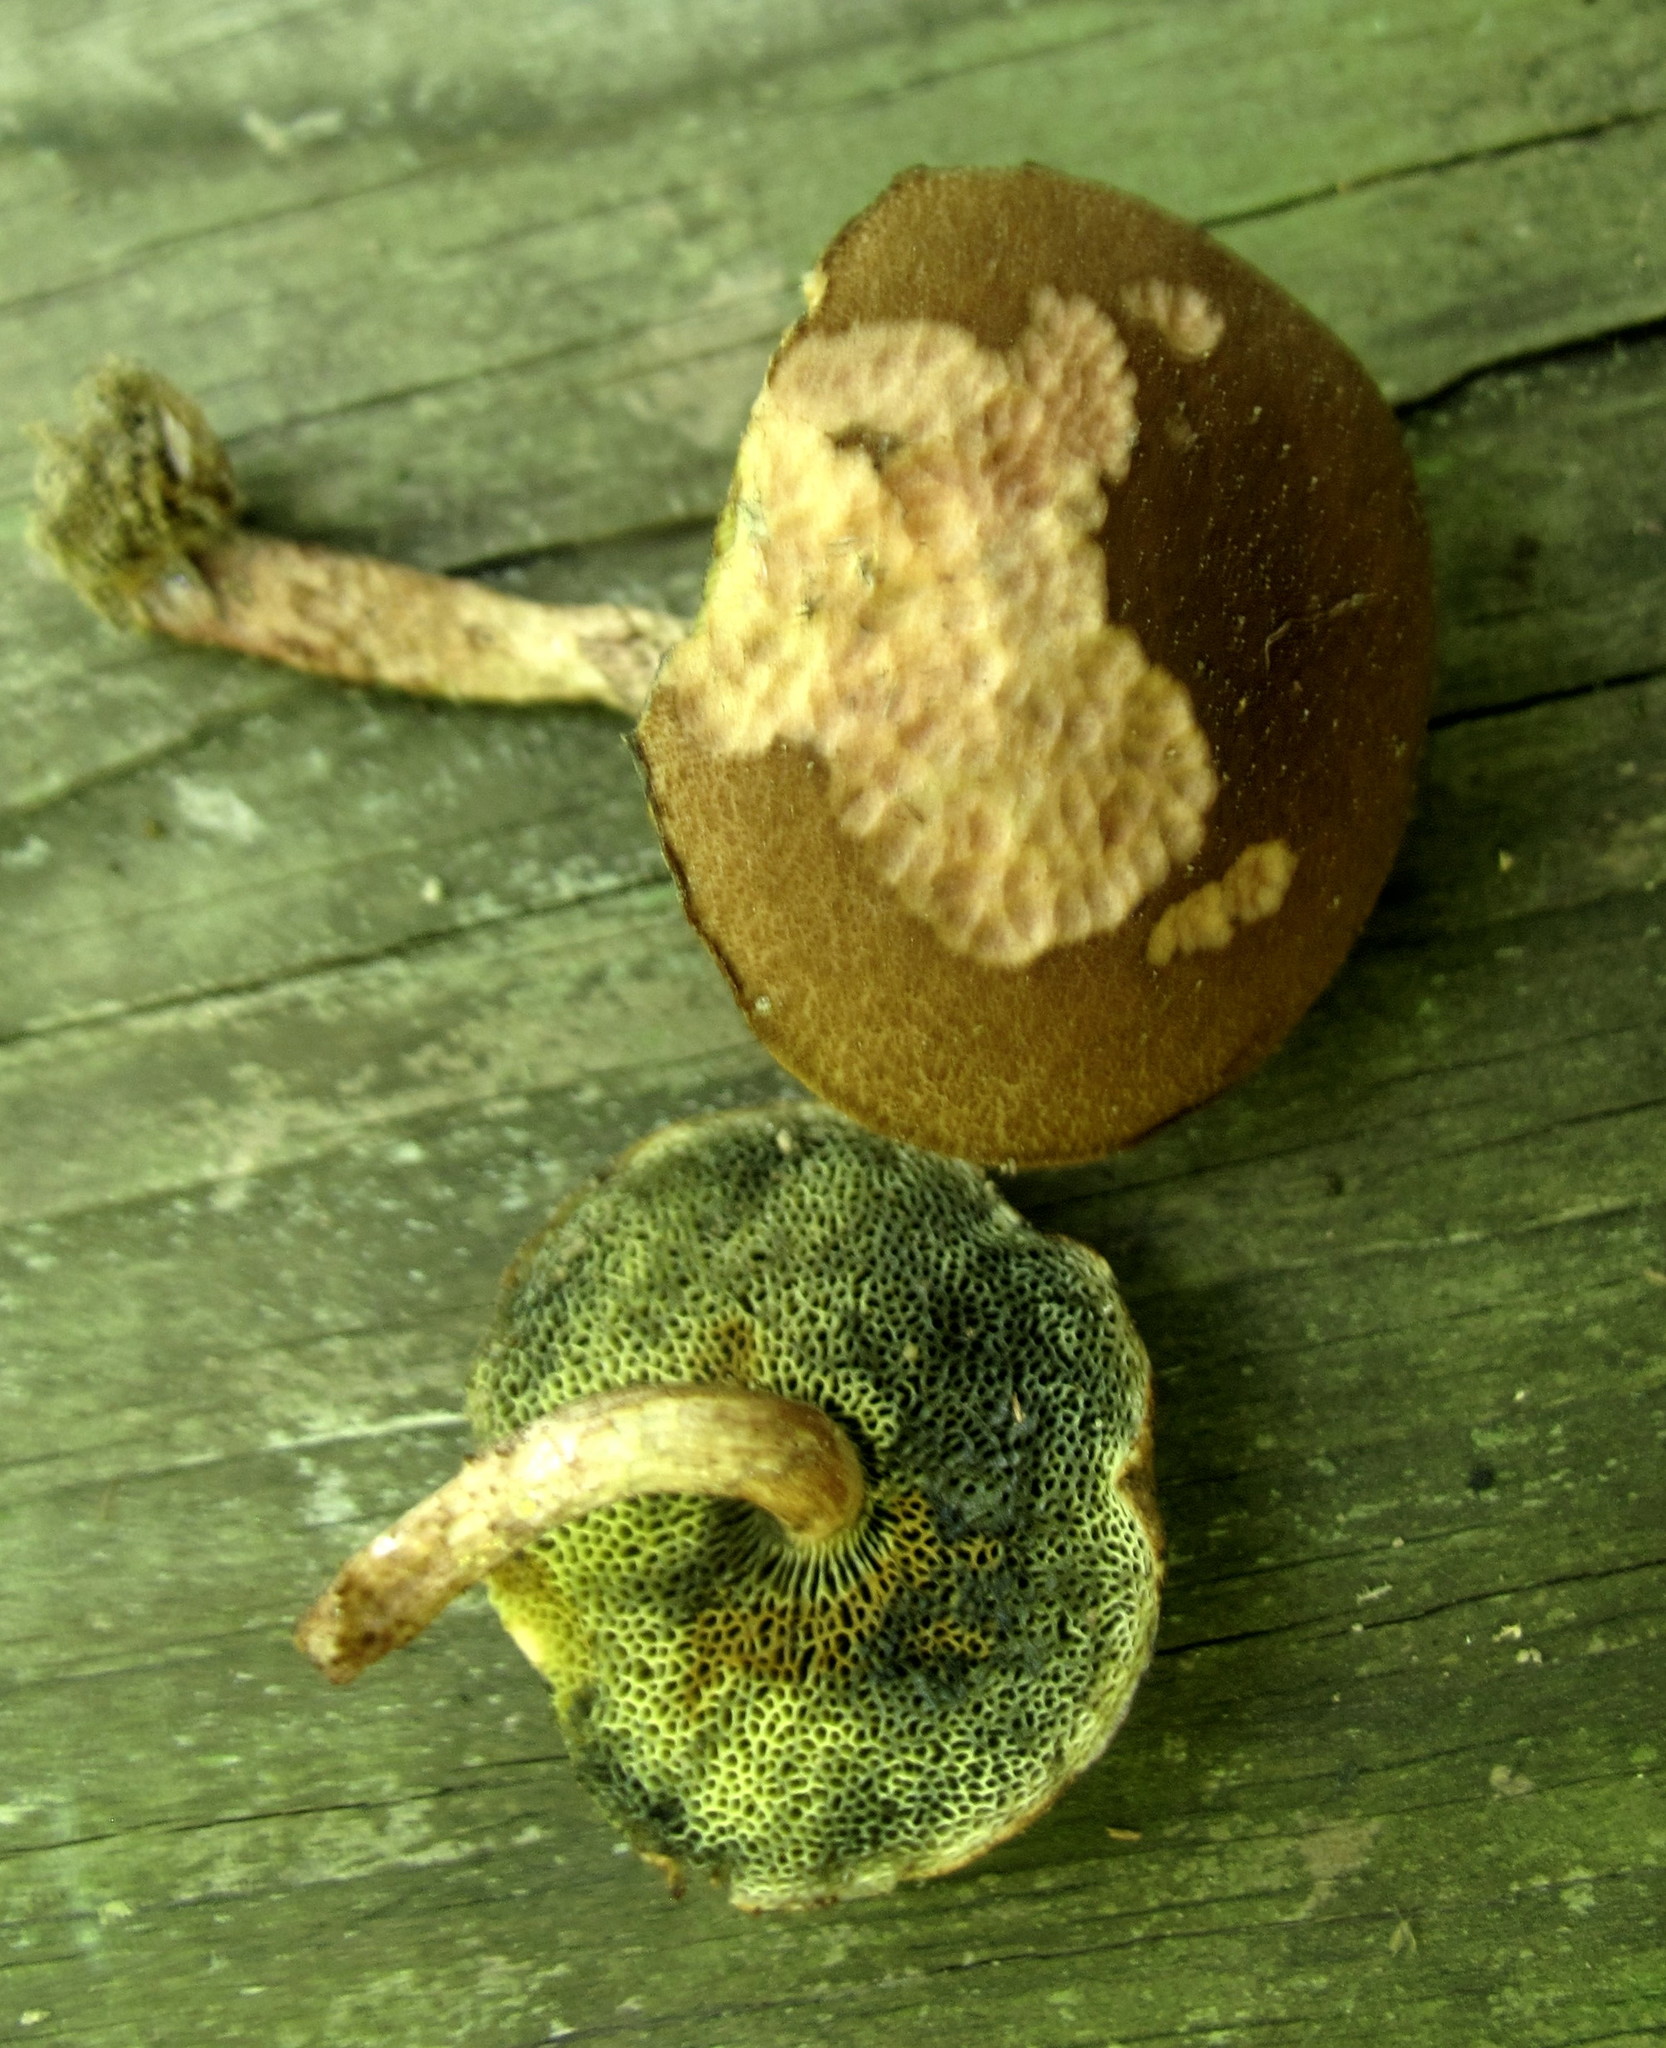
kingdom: Fungi
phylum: Basidiomycota
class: Agaricomycetes
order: Boletales
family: Boletaceae
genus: Boletellus
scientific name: Boletellus chrysenteroides
